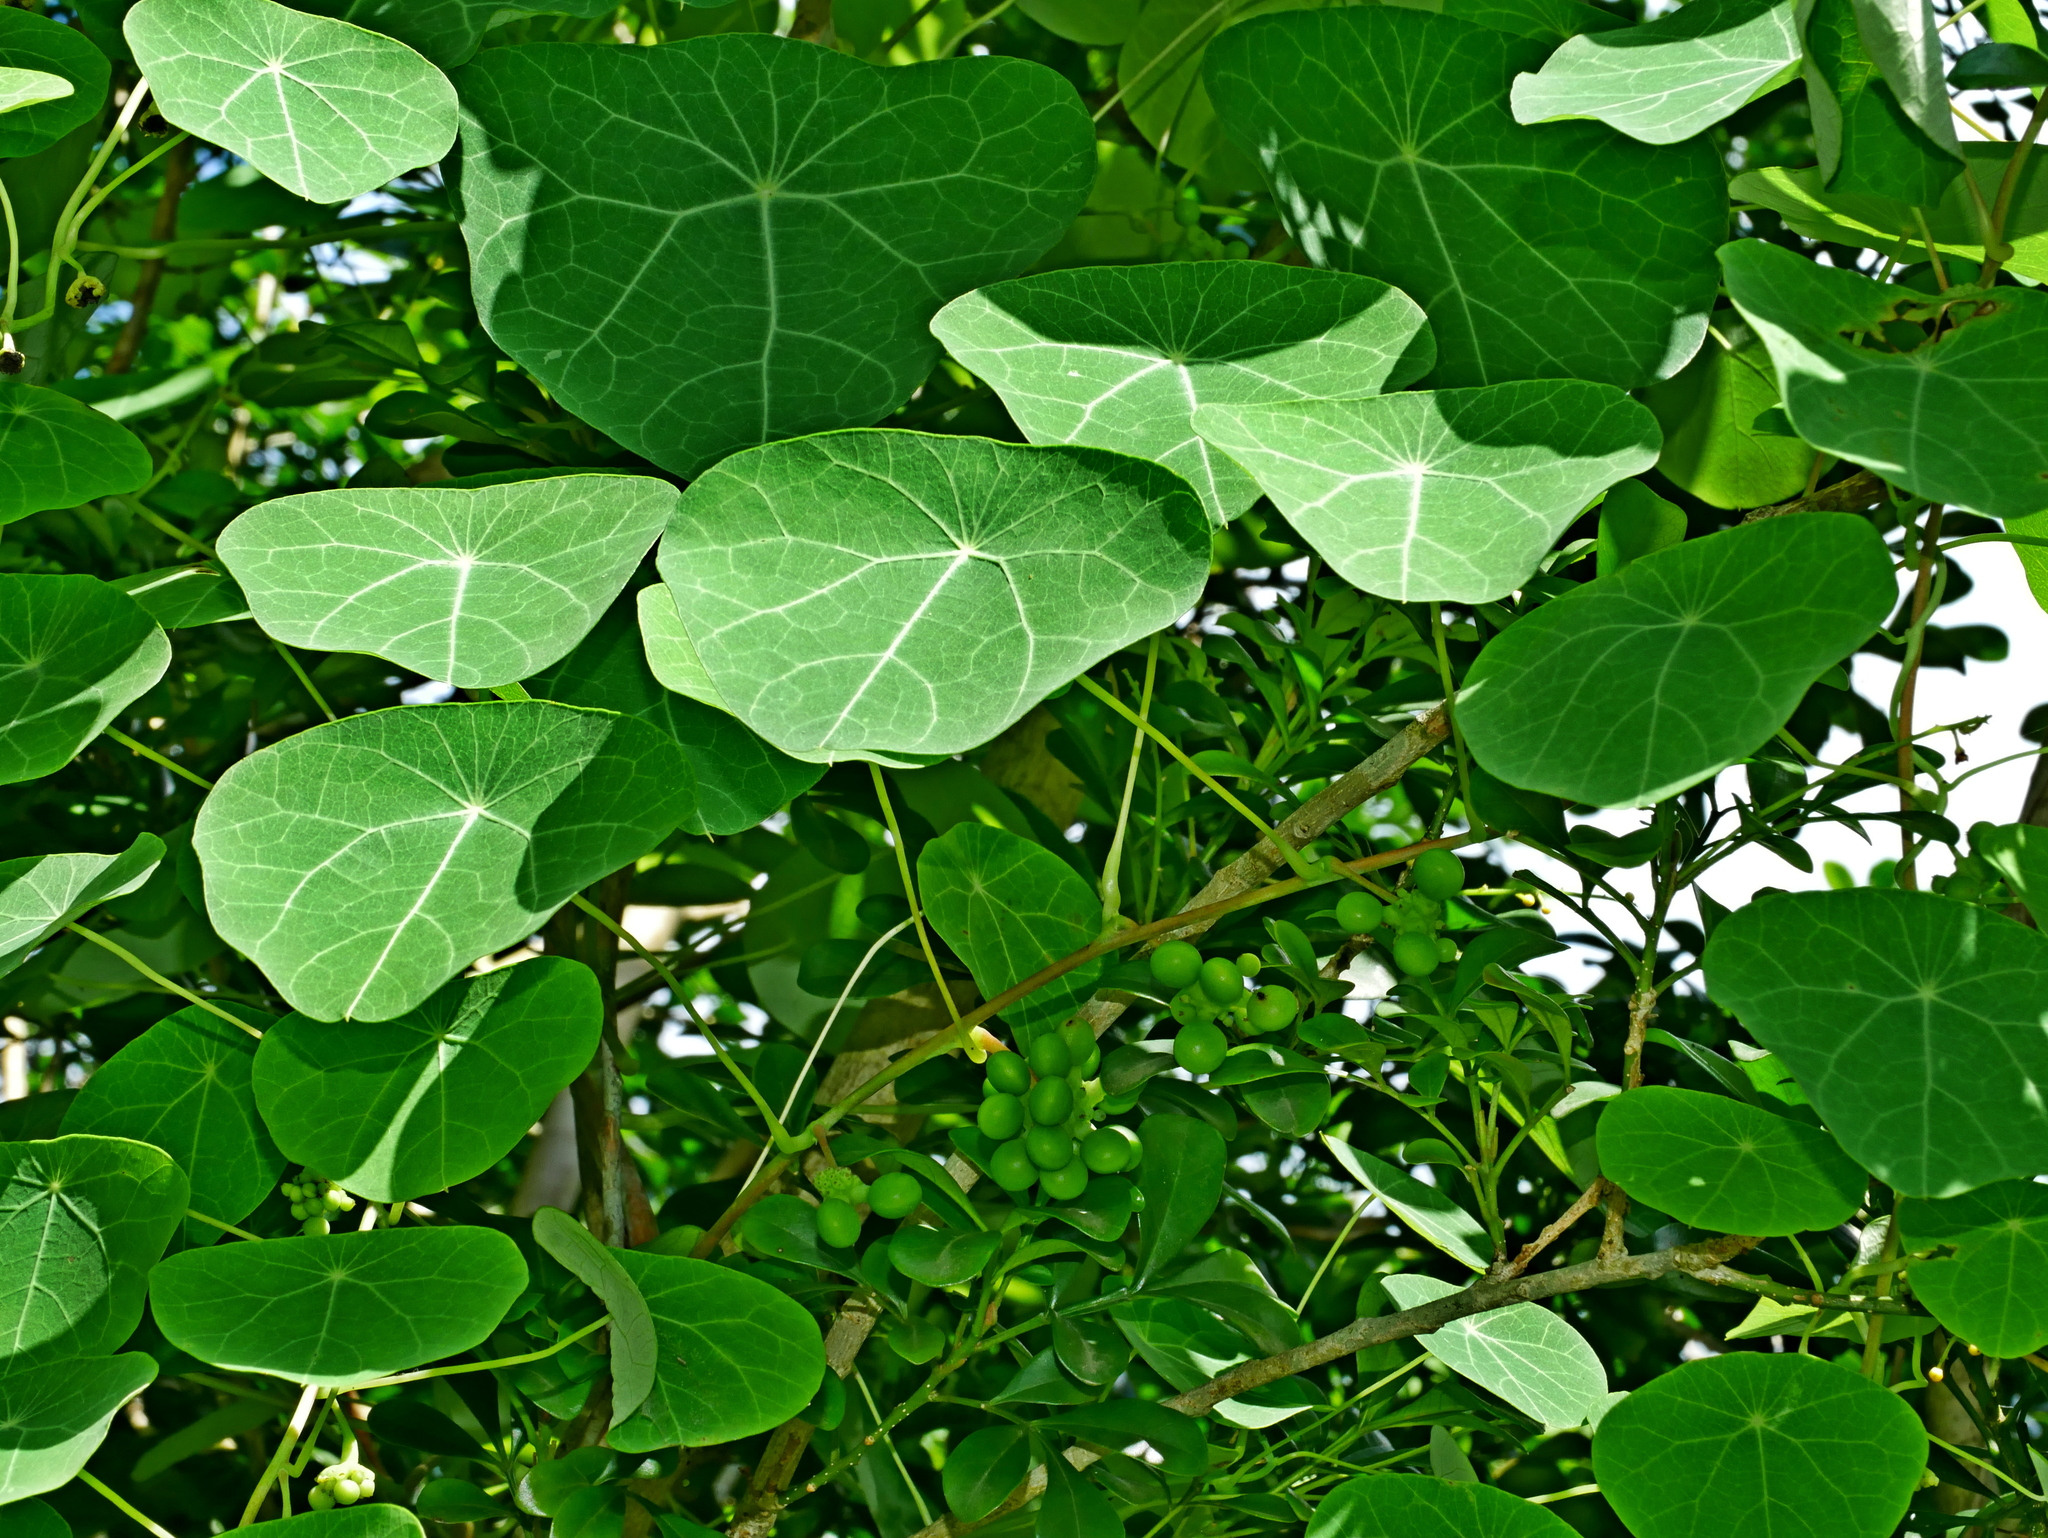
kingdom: Plantae
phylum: Tracheophyta
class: Magnoliopsida
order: Ranunculales
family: Menispermaceae
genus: Stephania
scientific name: Stephania cephalantha
